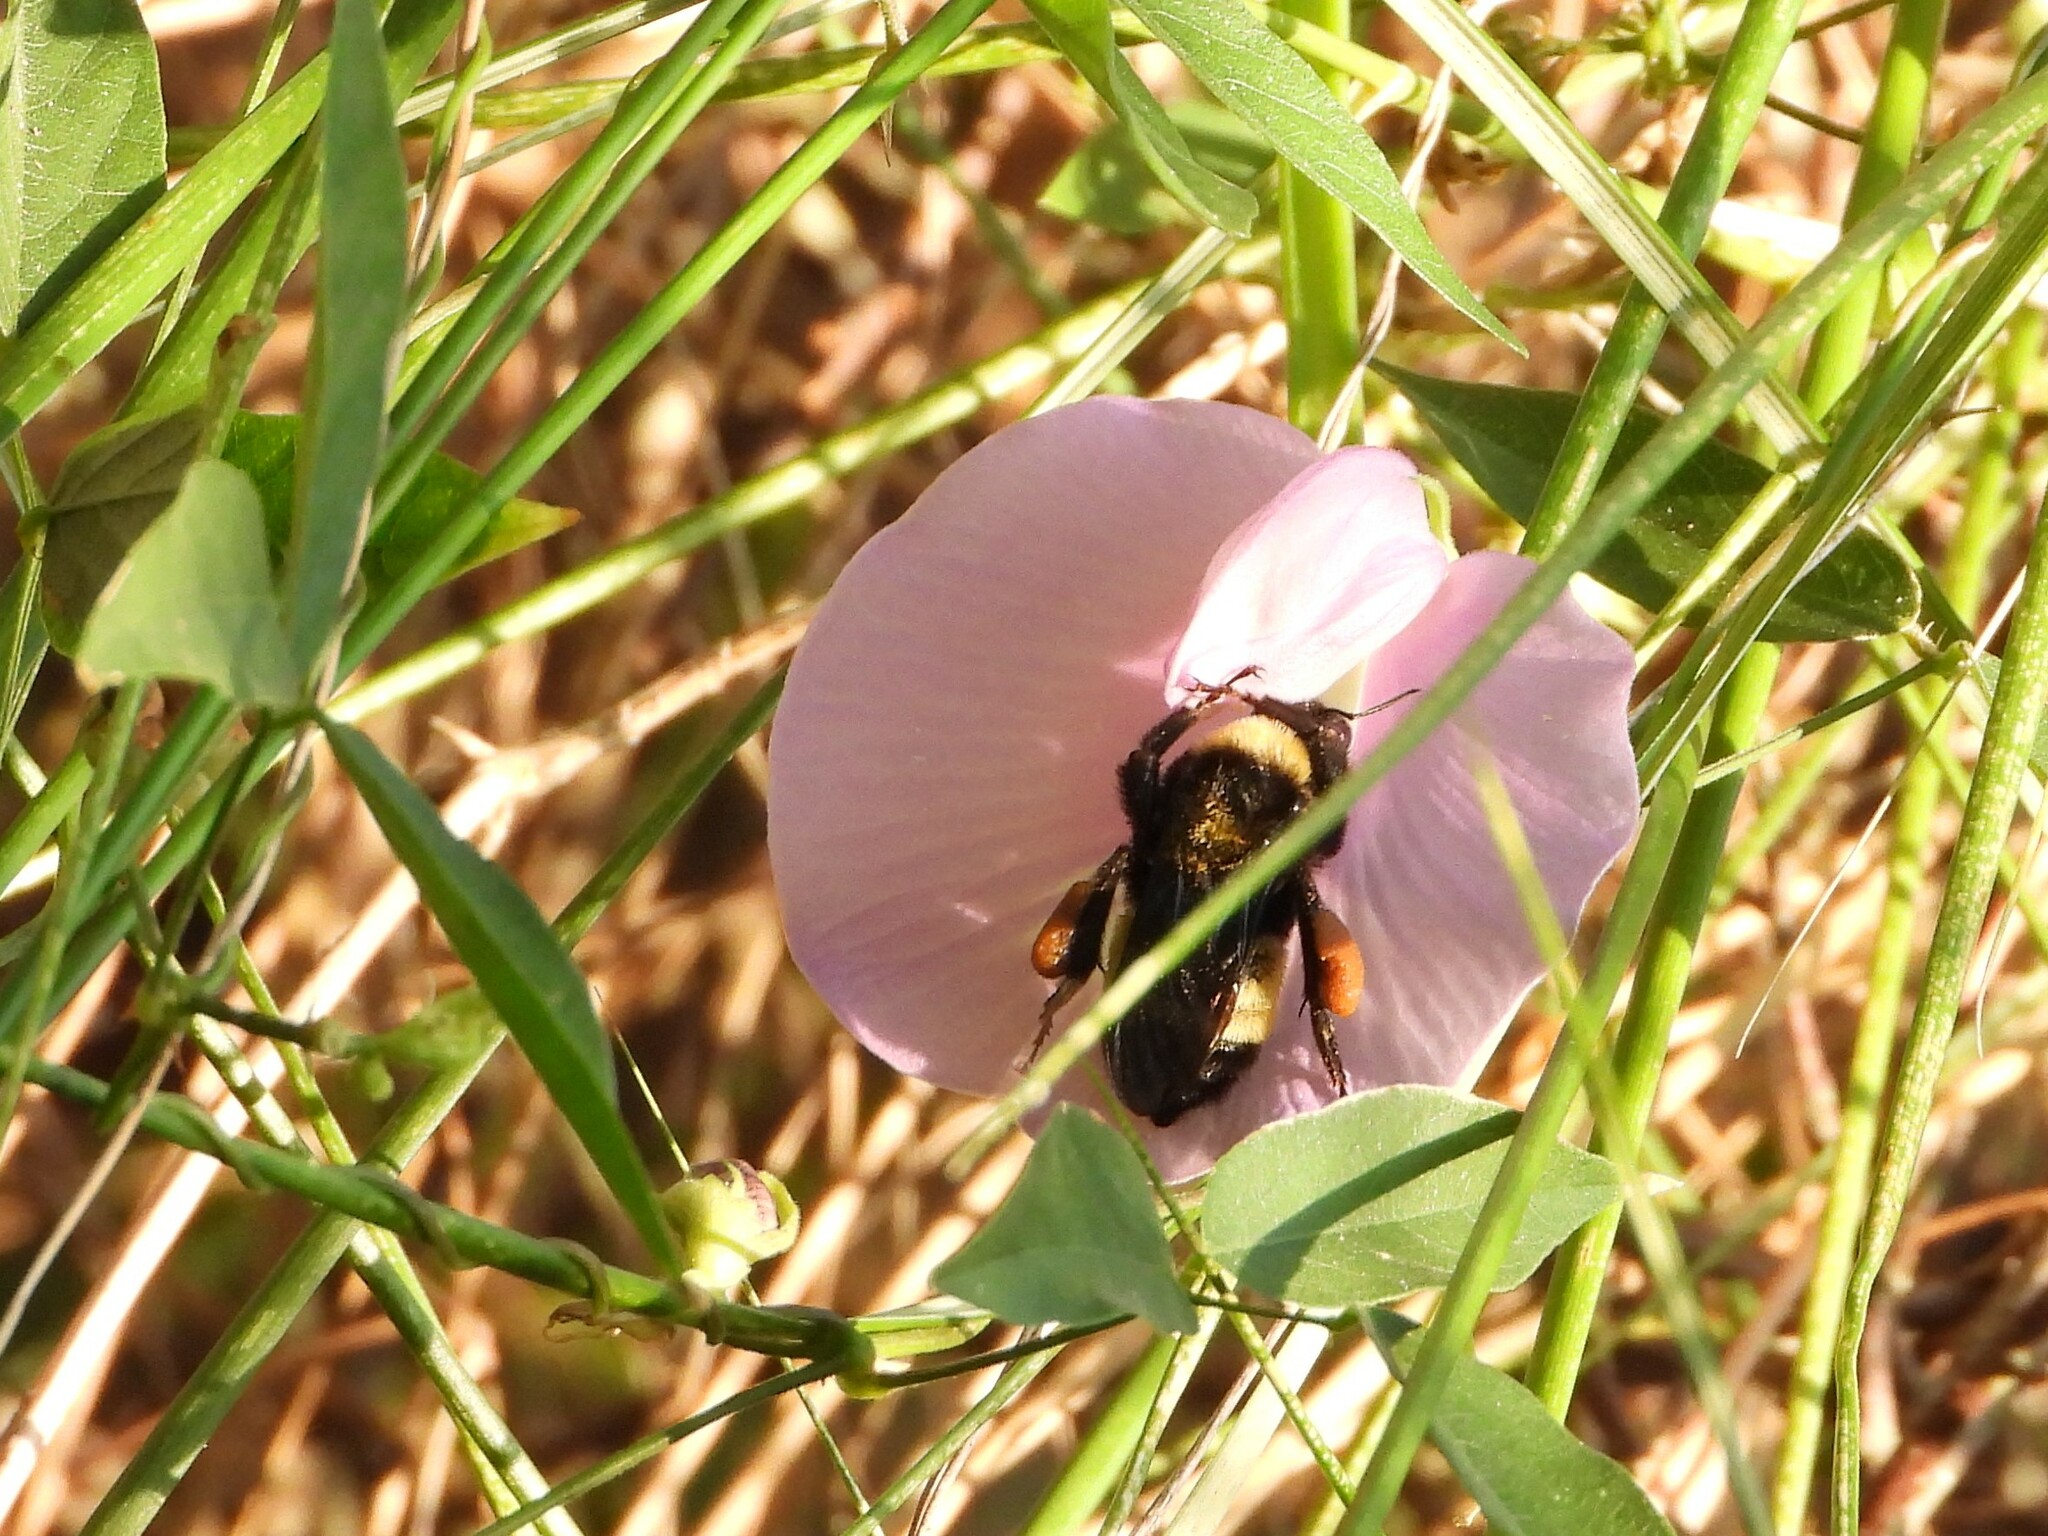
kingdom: Animalia
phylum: Arthropoda
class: Insecta
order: Hymenoptera
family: Apidae
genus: Bombus
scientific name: Bombus pensylvanicus
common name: Bumble bee
